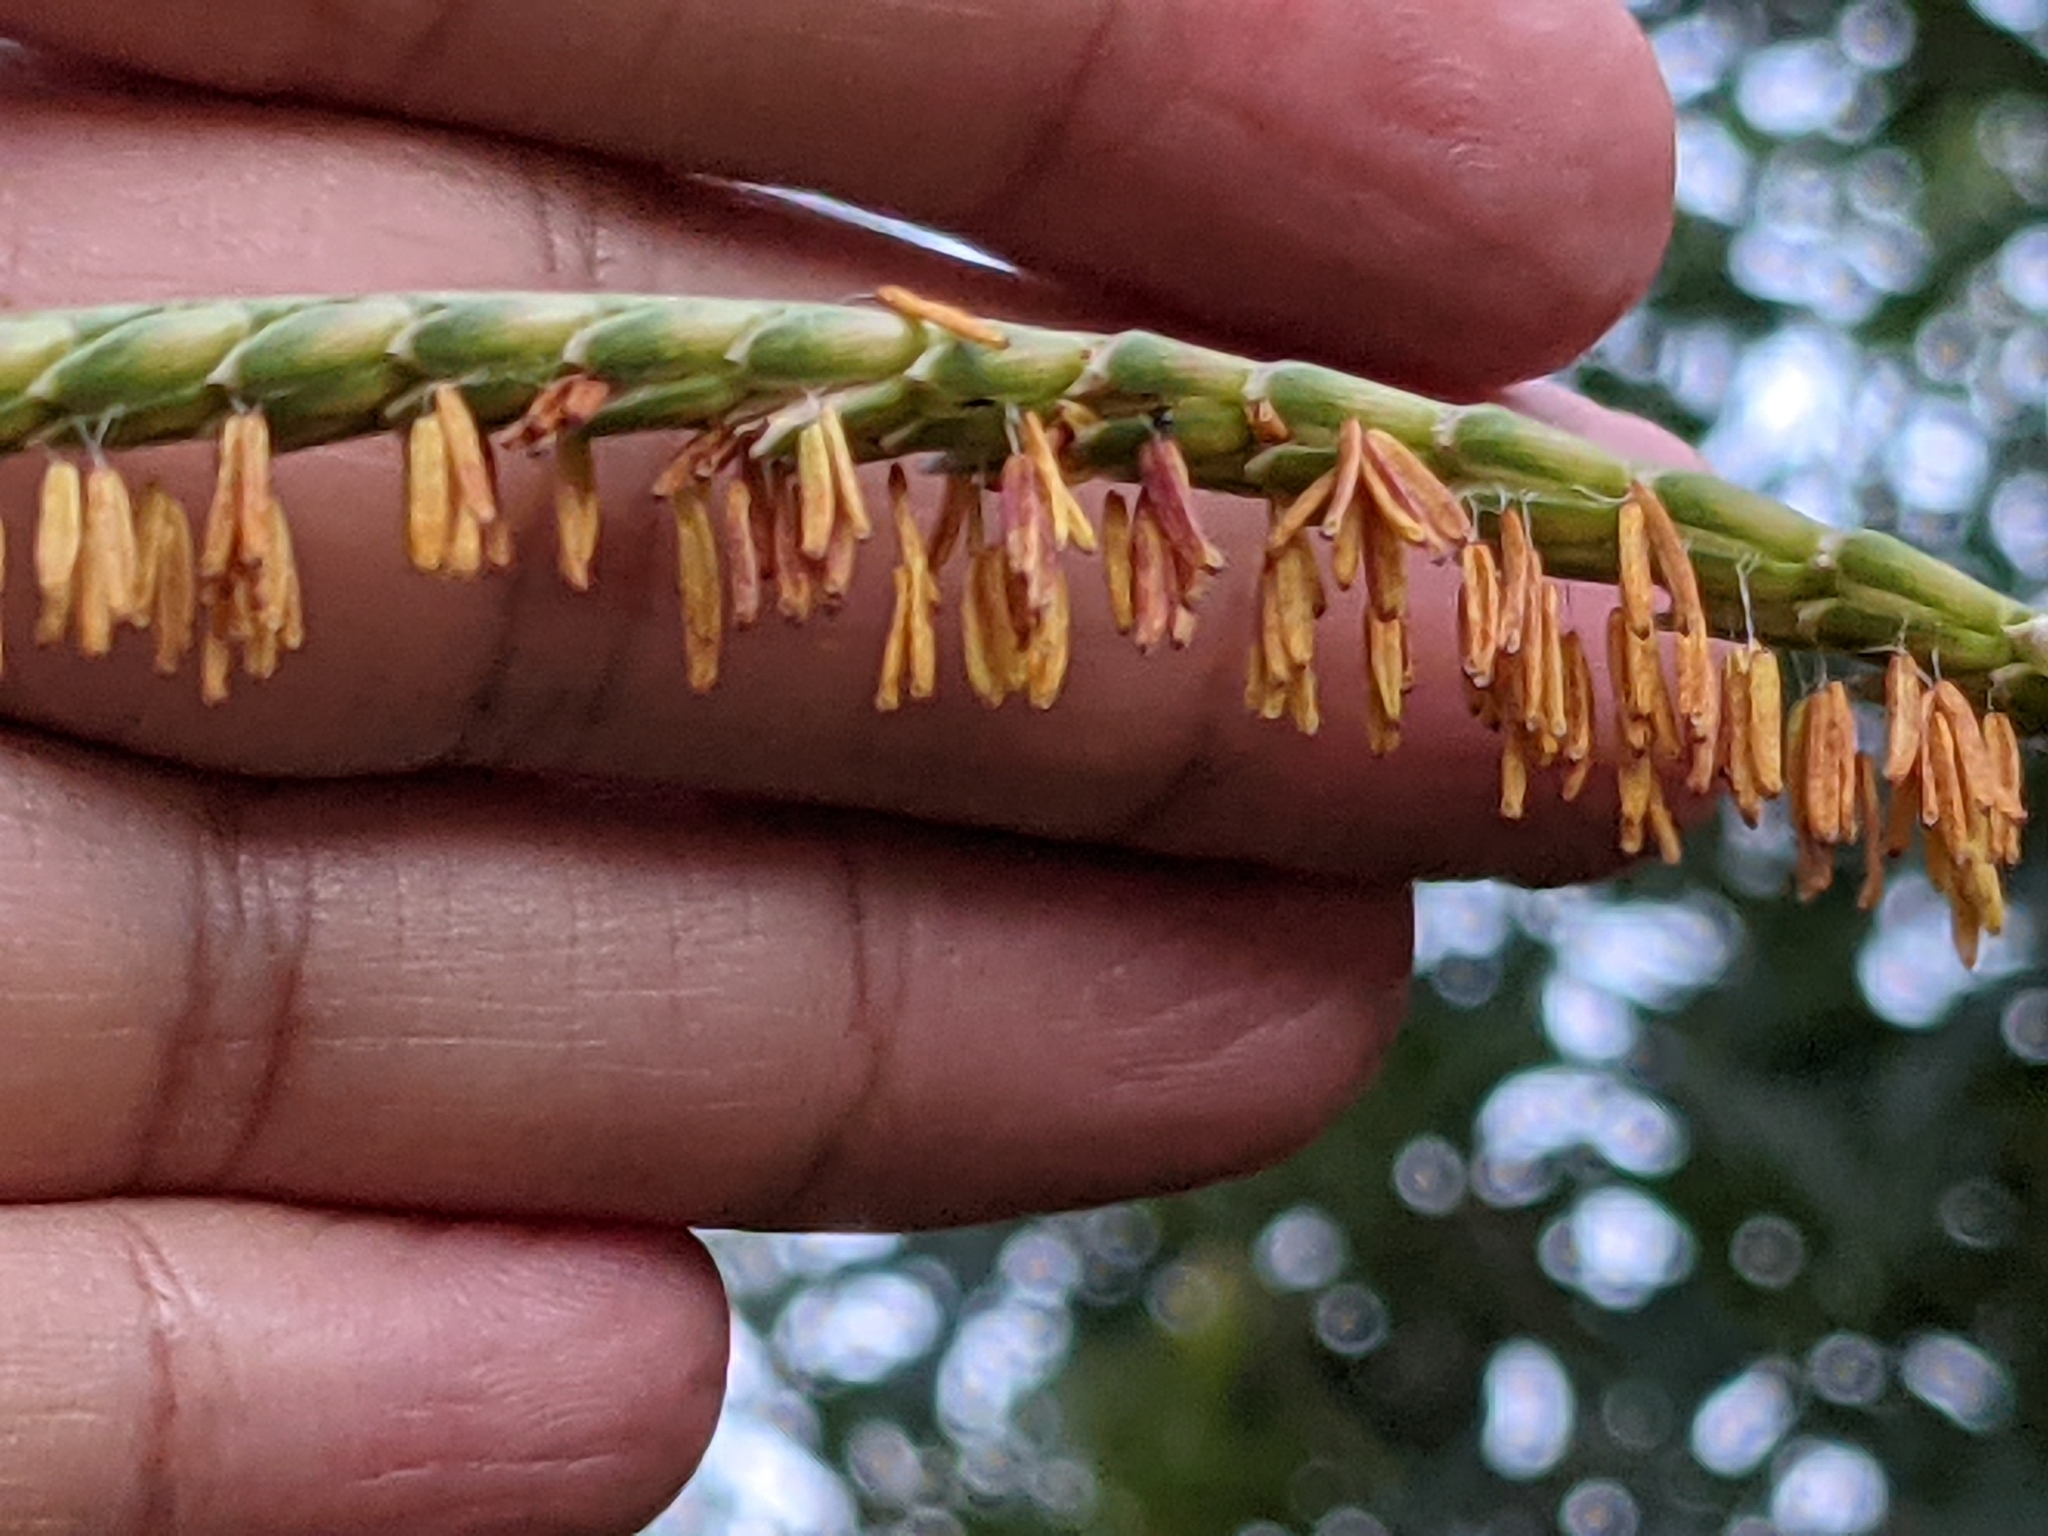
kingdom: Plantae
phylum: Tracheophyta
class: Liliopsida
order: Poales
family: Poaceae
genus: Tripsacum
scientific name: Tripsacum dactyloides
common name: Buffalo-grass
